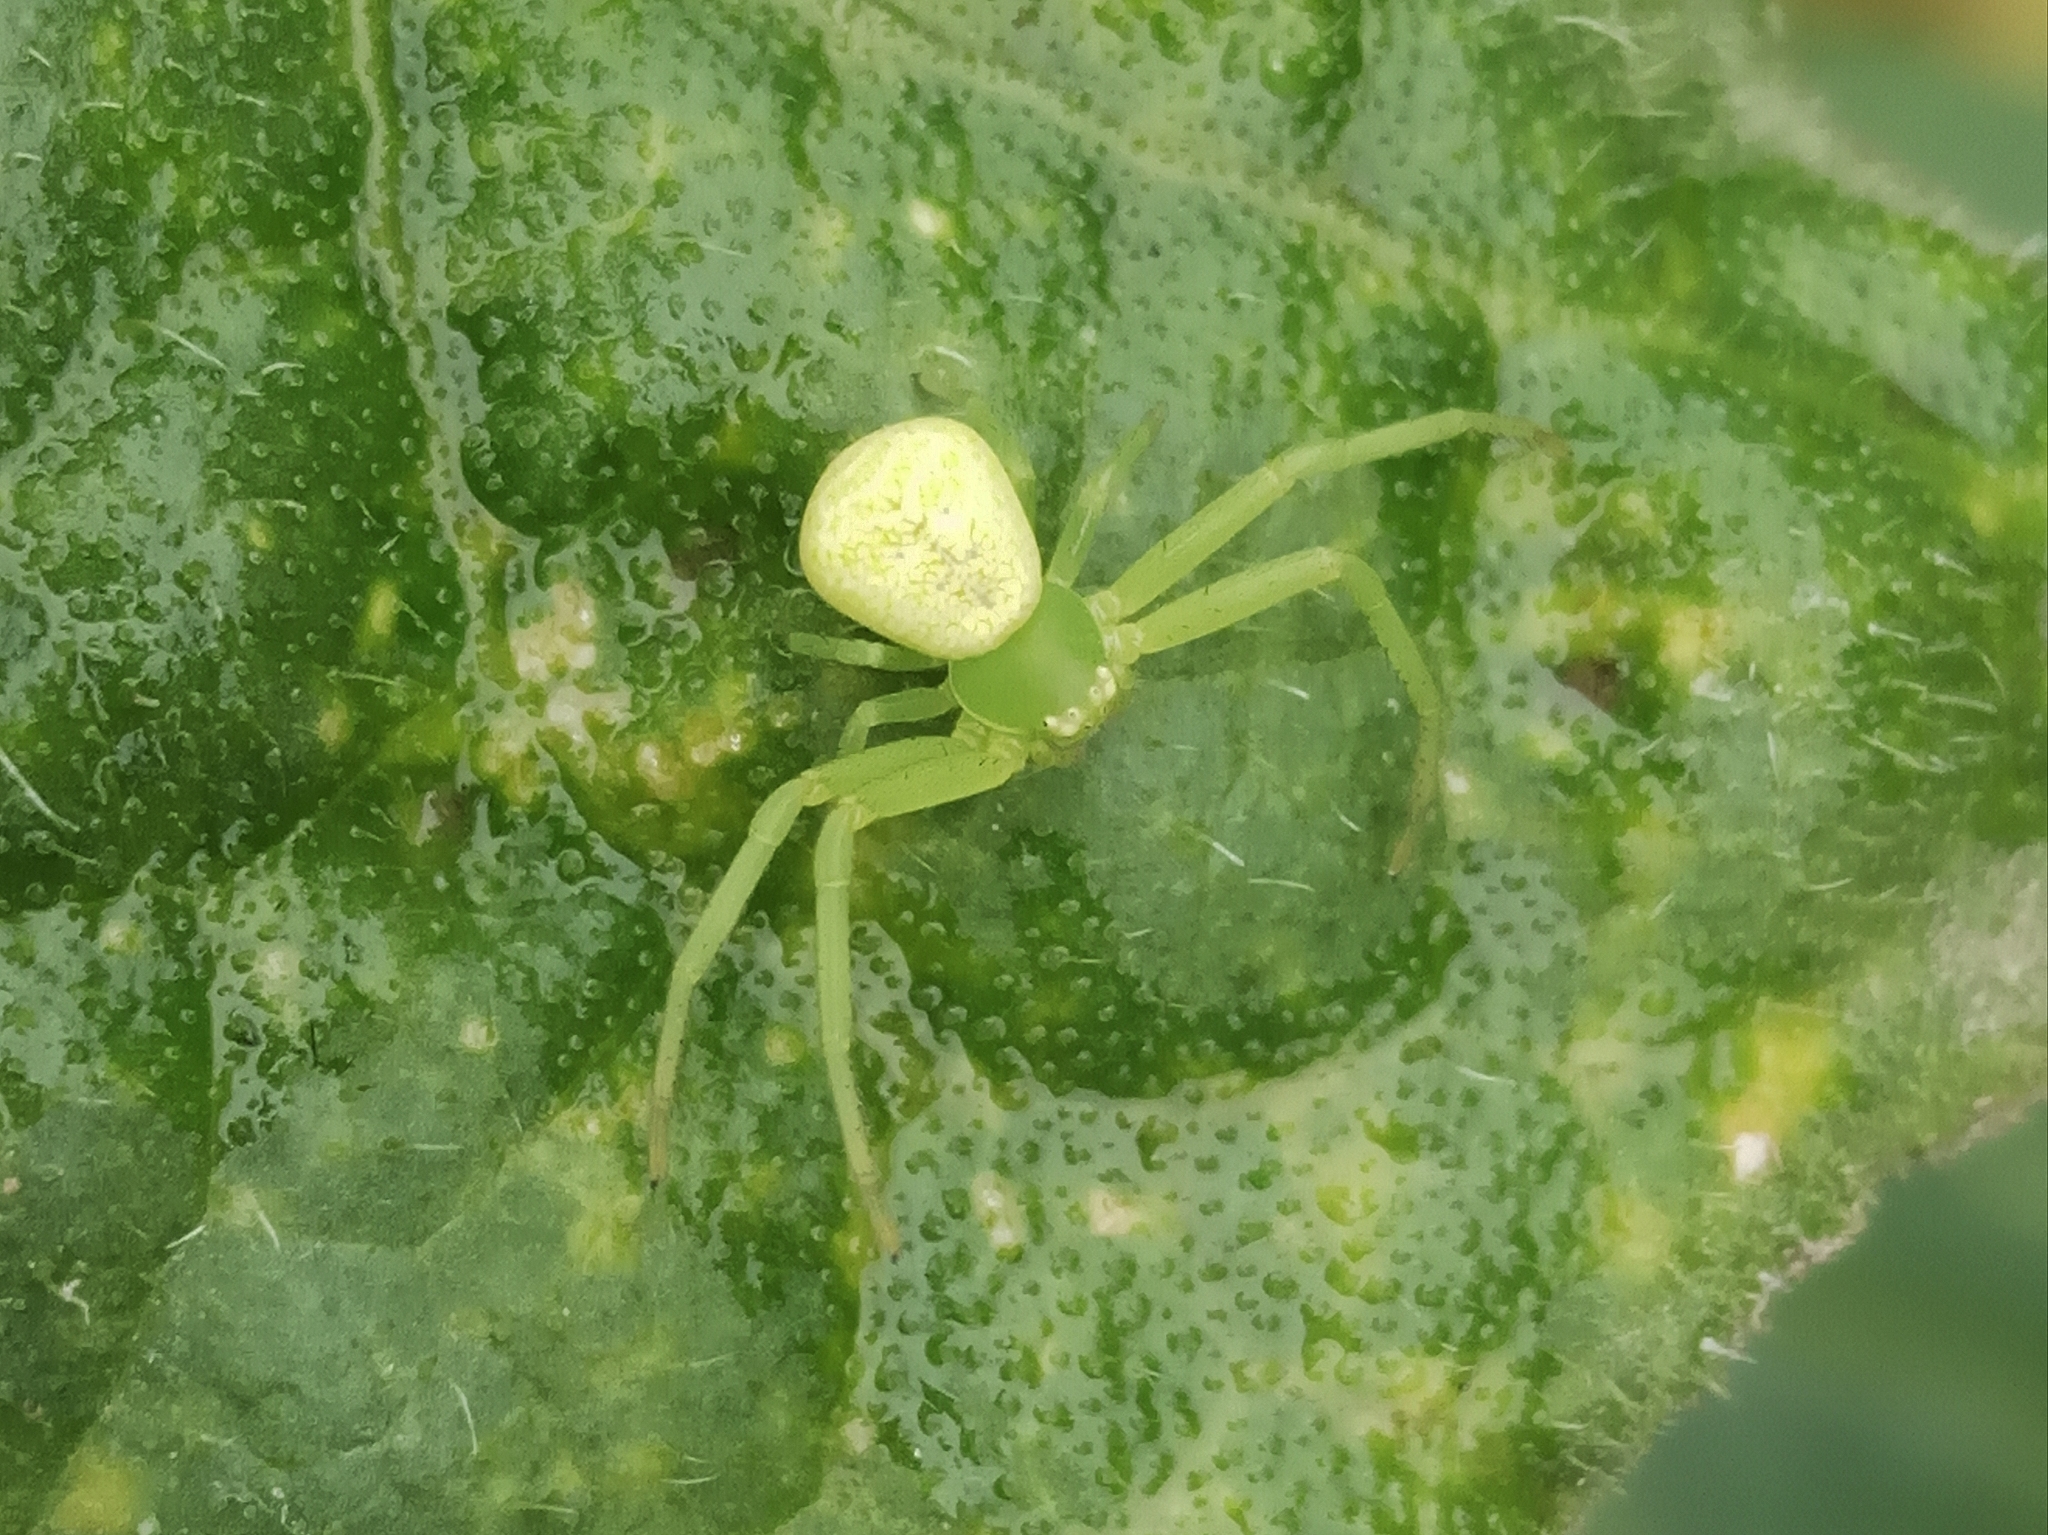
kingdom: Animalia
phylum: Arthropoda
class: Arachnida
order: Araneae
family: Thomisidae
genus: Ebrechtella
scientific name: Ebrechtella tricuspidata
